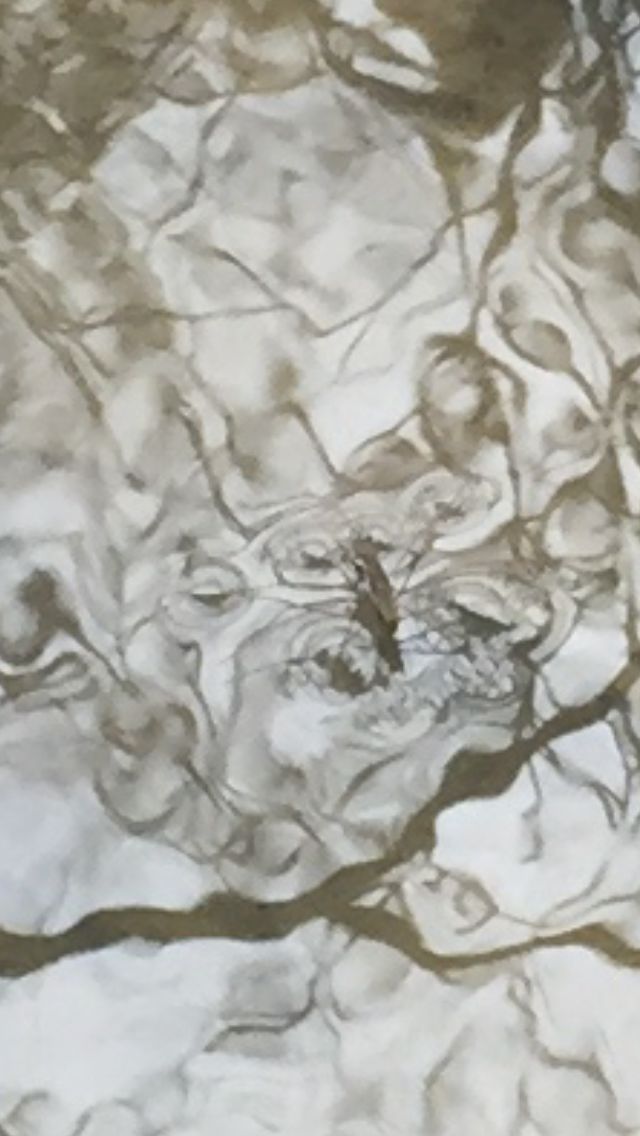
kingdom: Animalia
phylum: Arthropoda
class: Insecta
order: Hemiptera
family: Gerridae
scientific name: Gerridae
